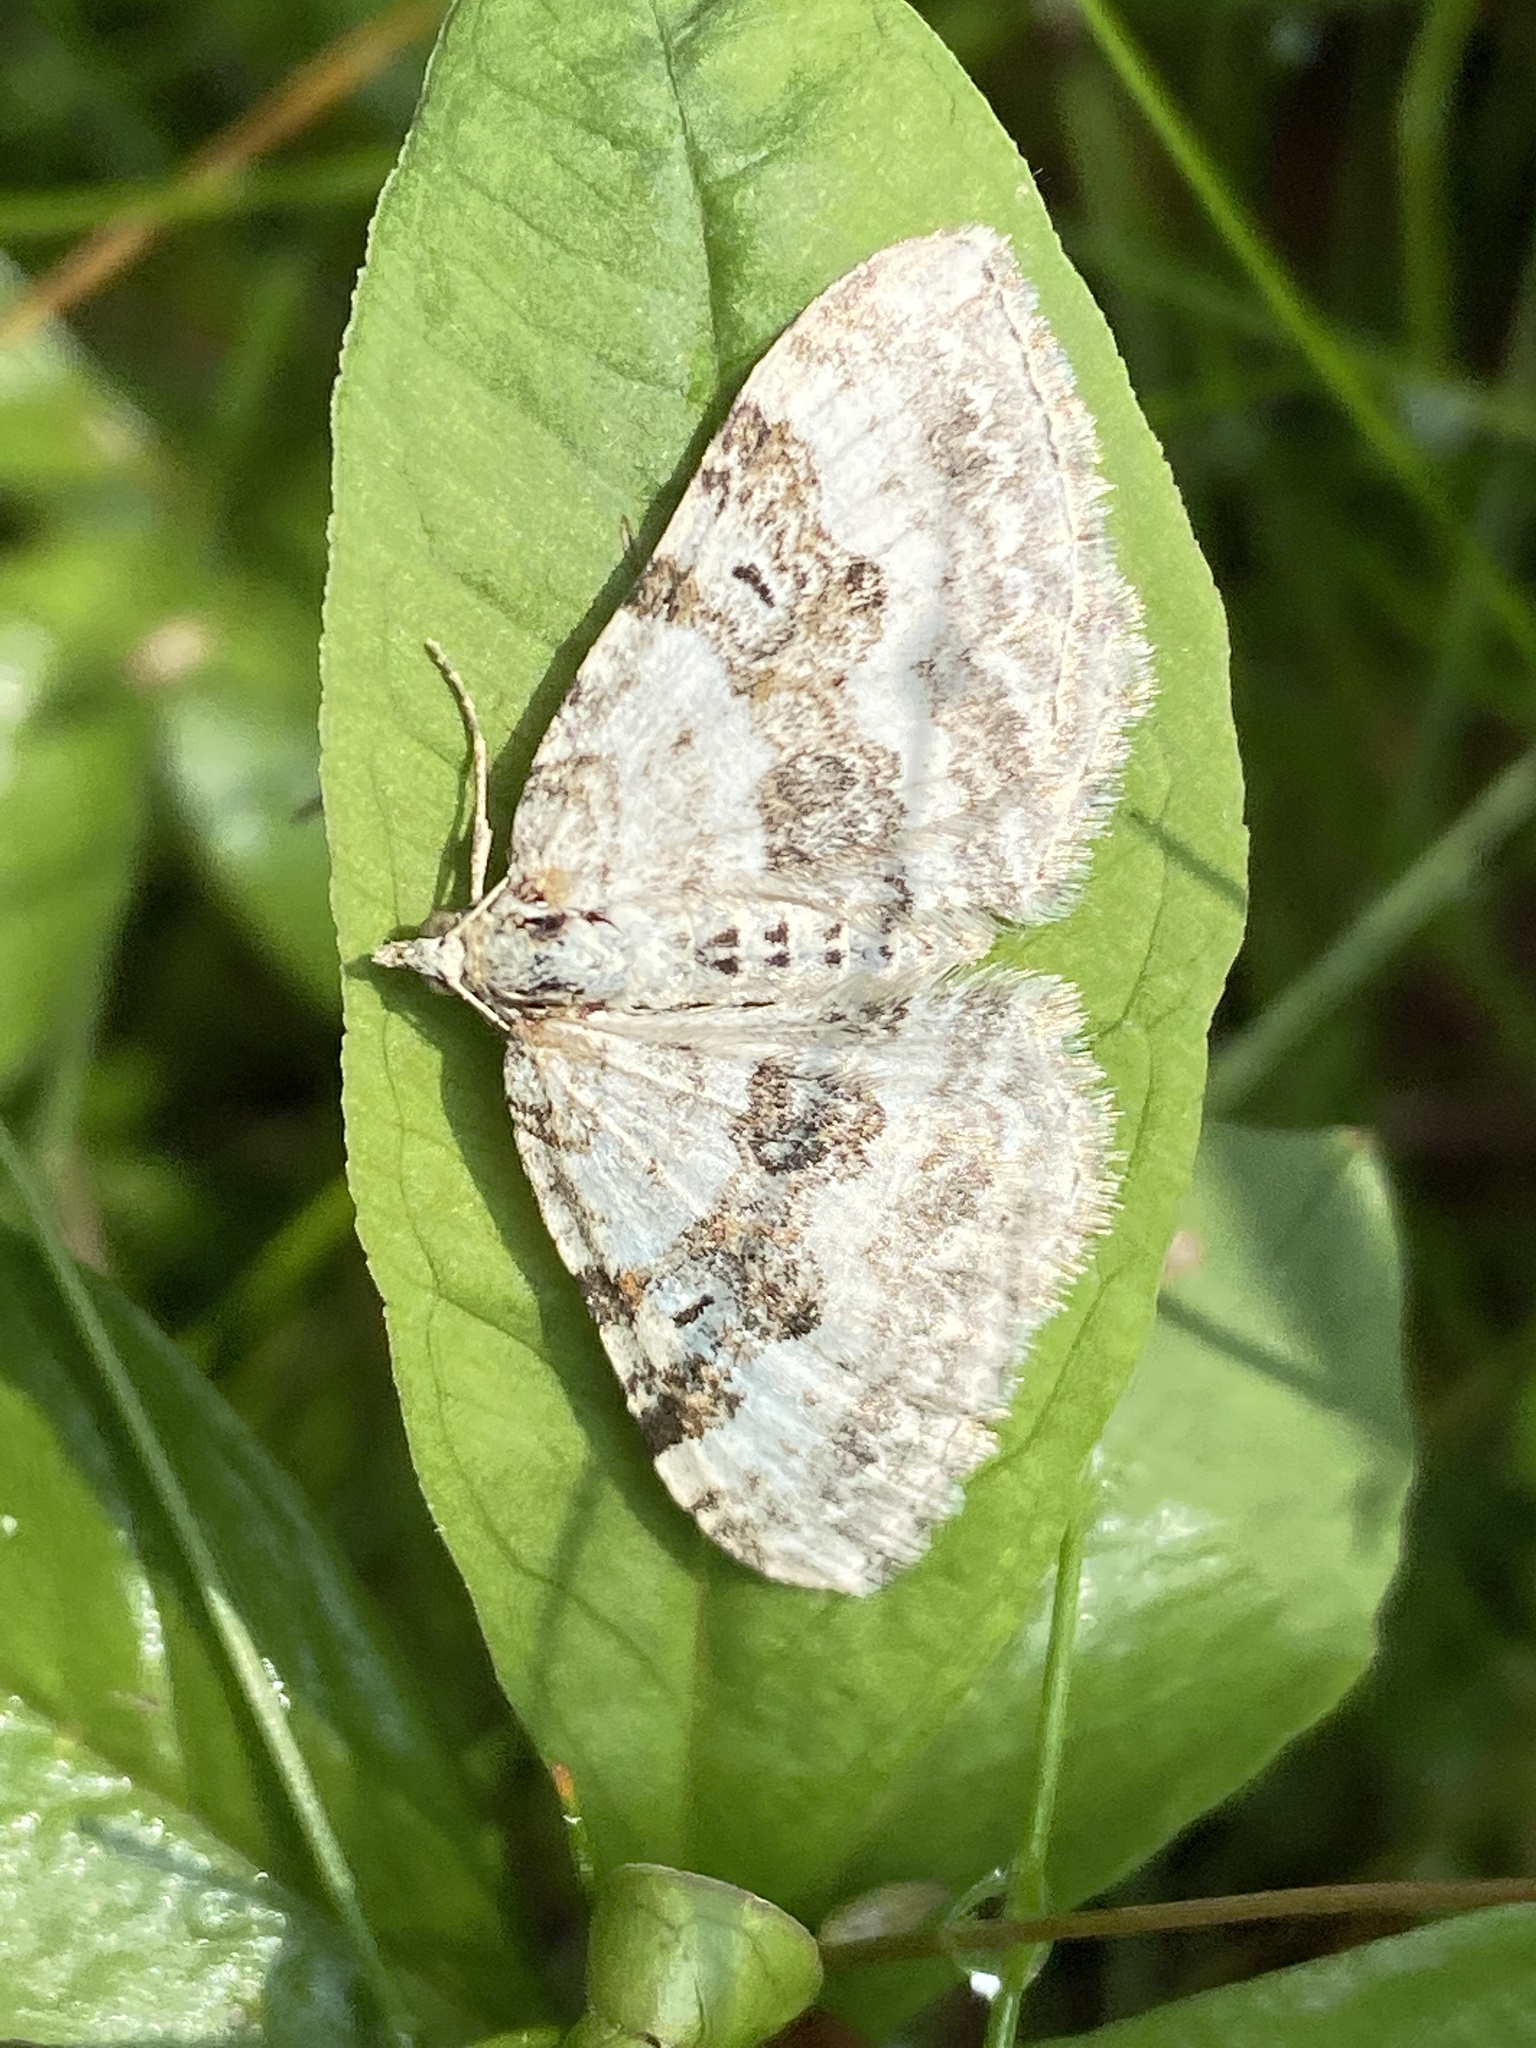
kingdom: Animalia
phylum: Arthropoda
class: Insecta
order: Lepidoptera
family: Geometridae
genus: Xanthorhoe
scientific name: Xanthorhoe montanata
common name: Silver-ground carpet
